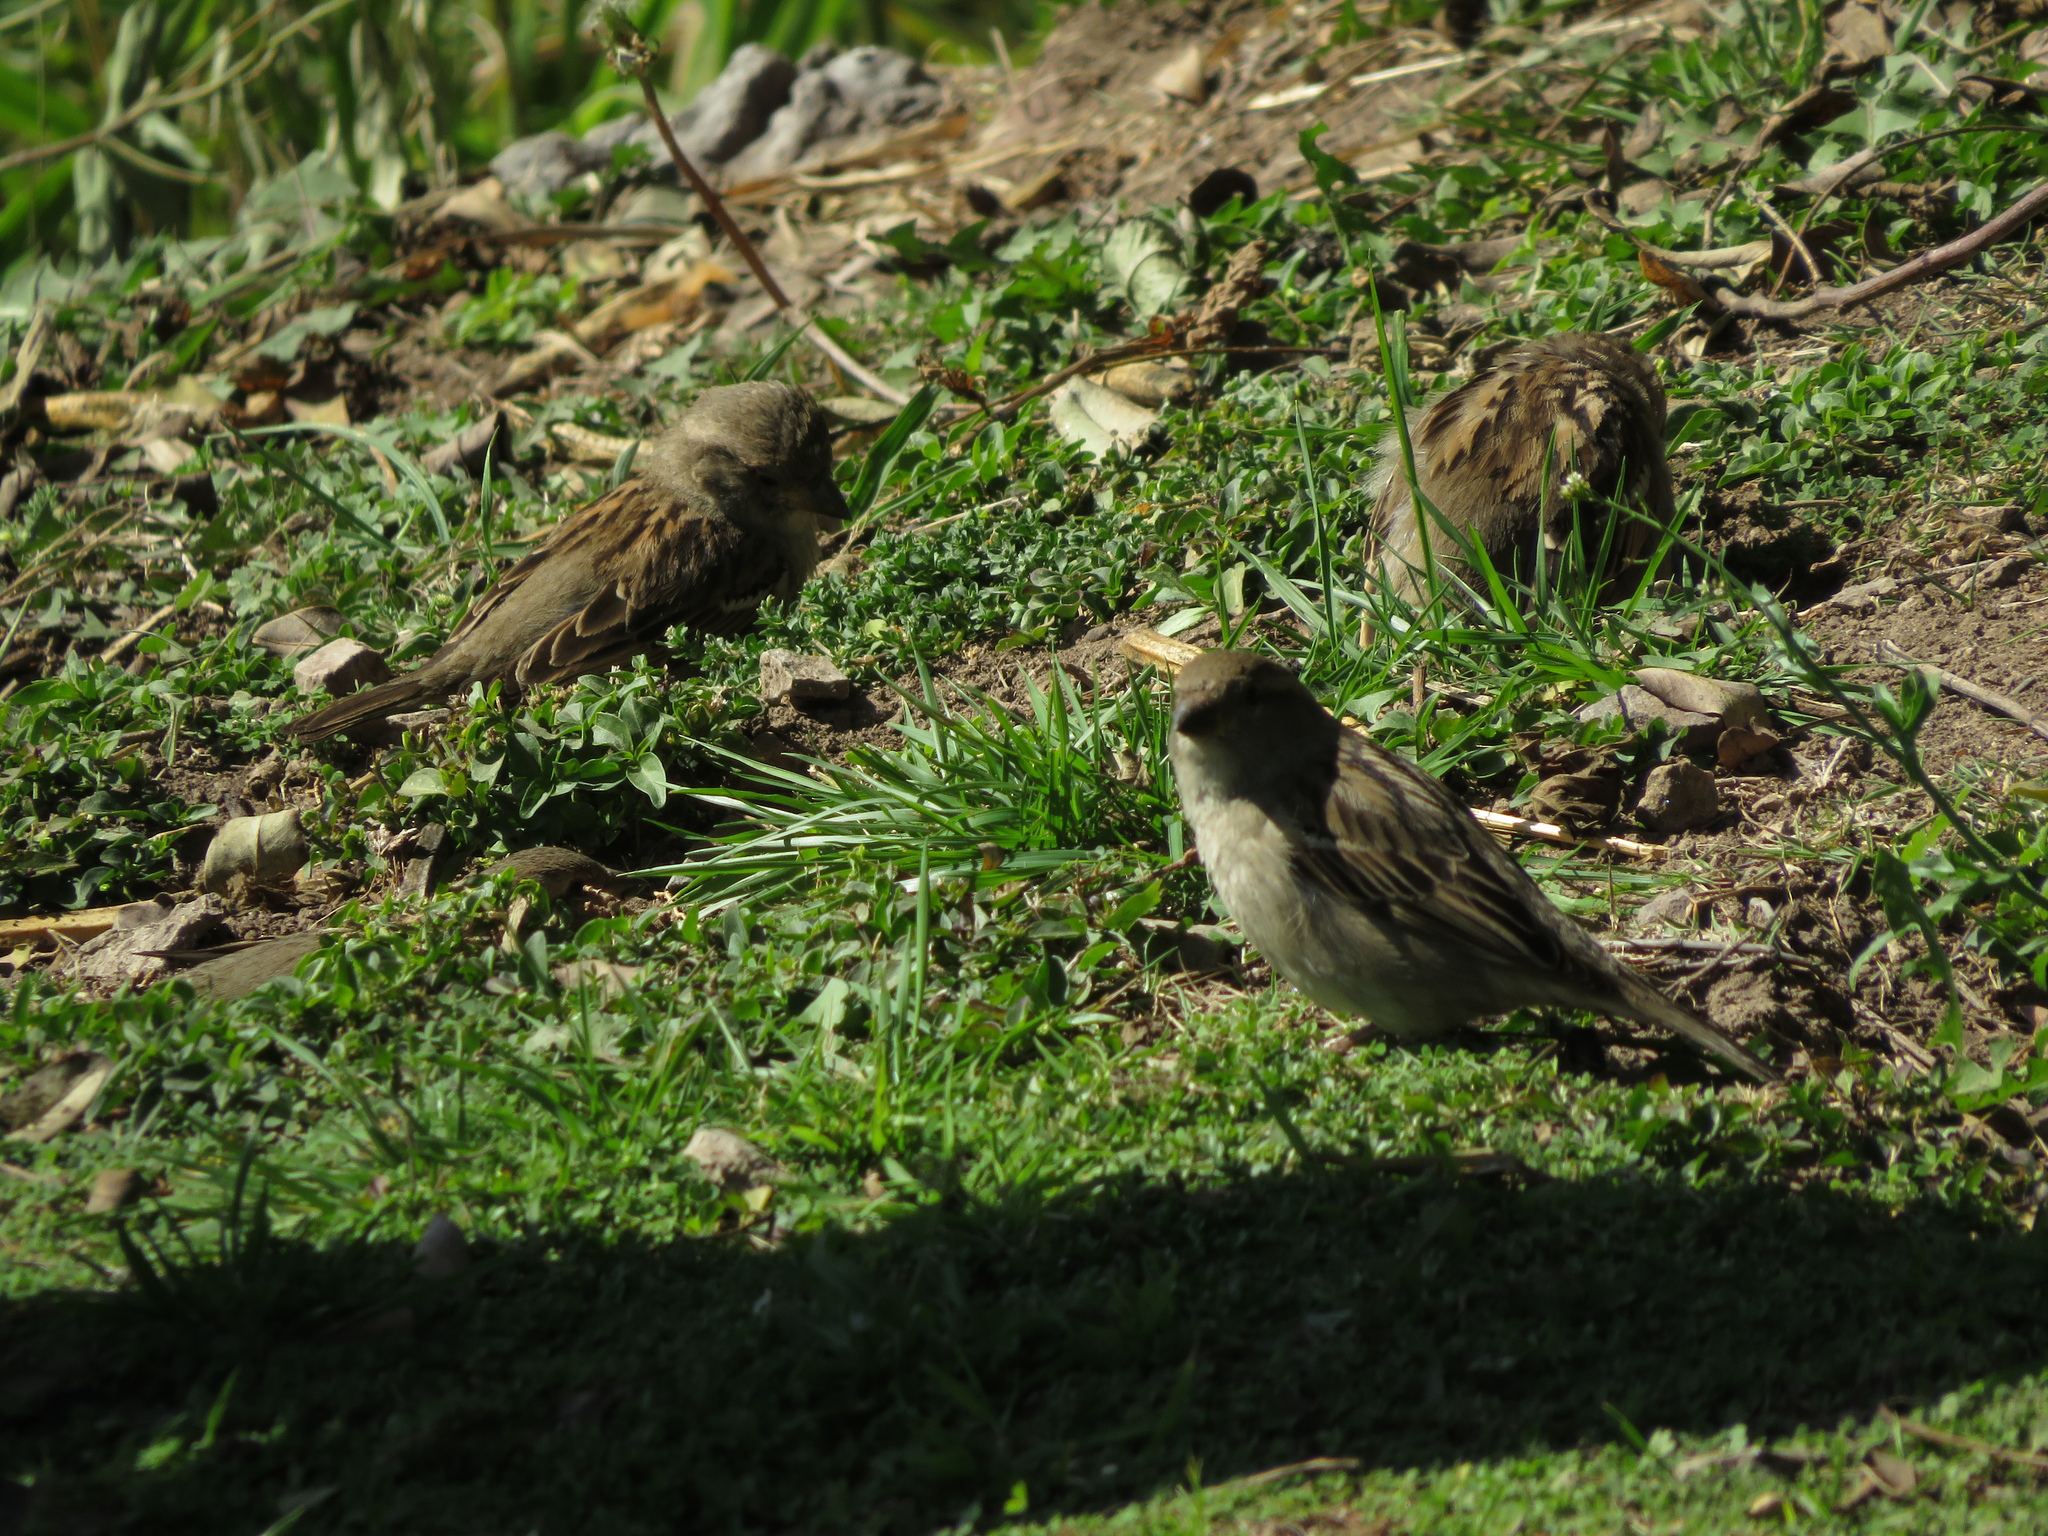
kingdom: Animalia
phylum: Chordata
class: Aves
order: Passeriformes
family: Passeridae
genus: Passer
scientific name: Passer domesticus
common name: House sparrow
